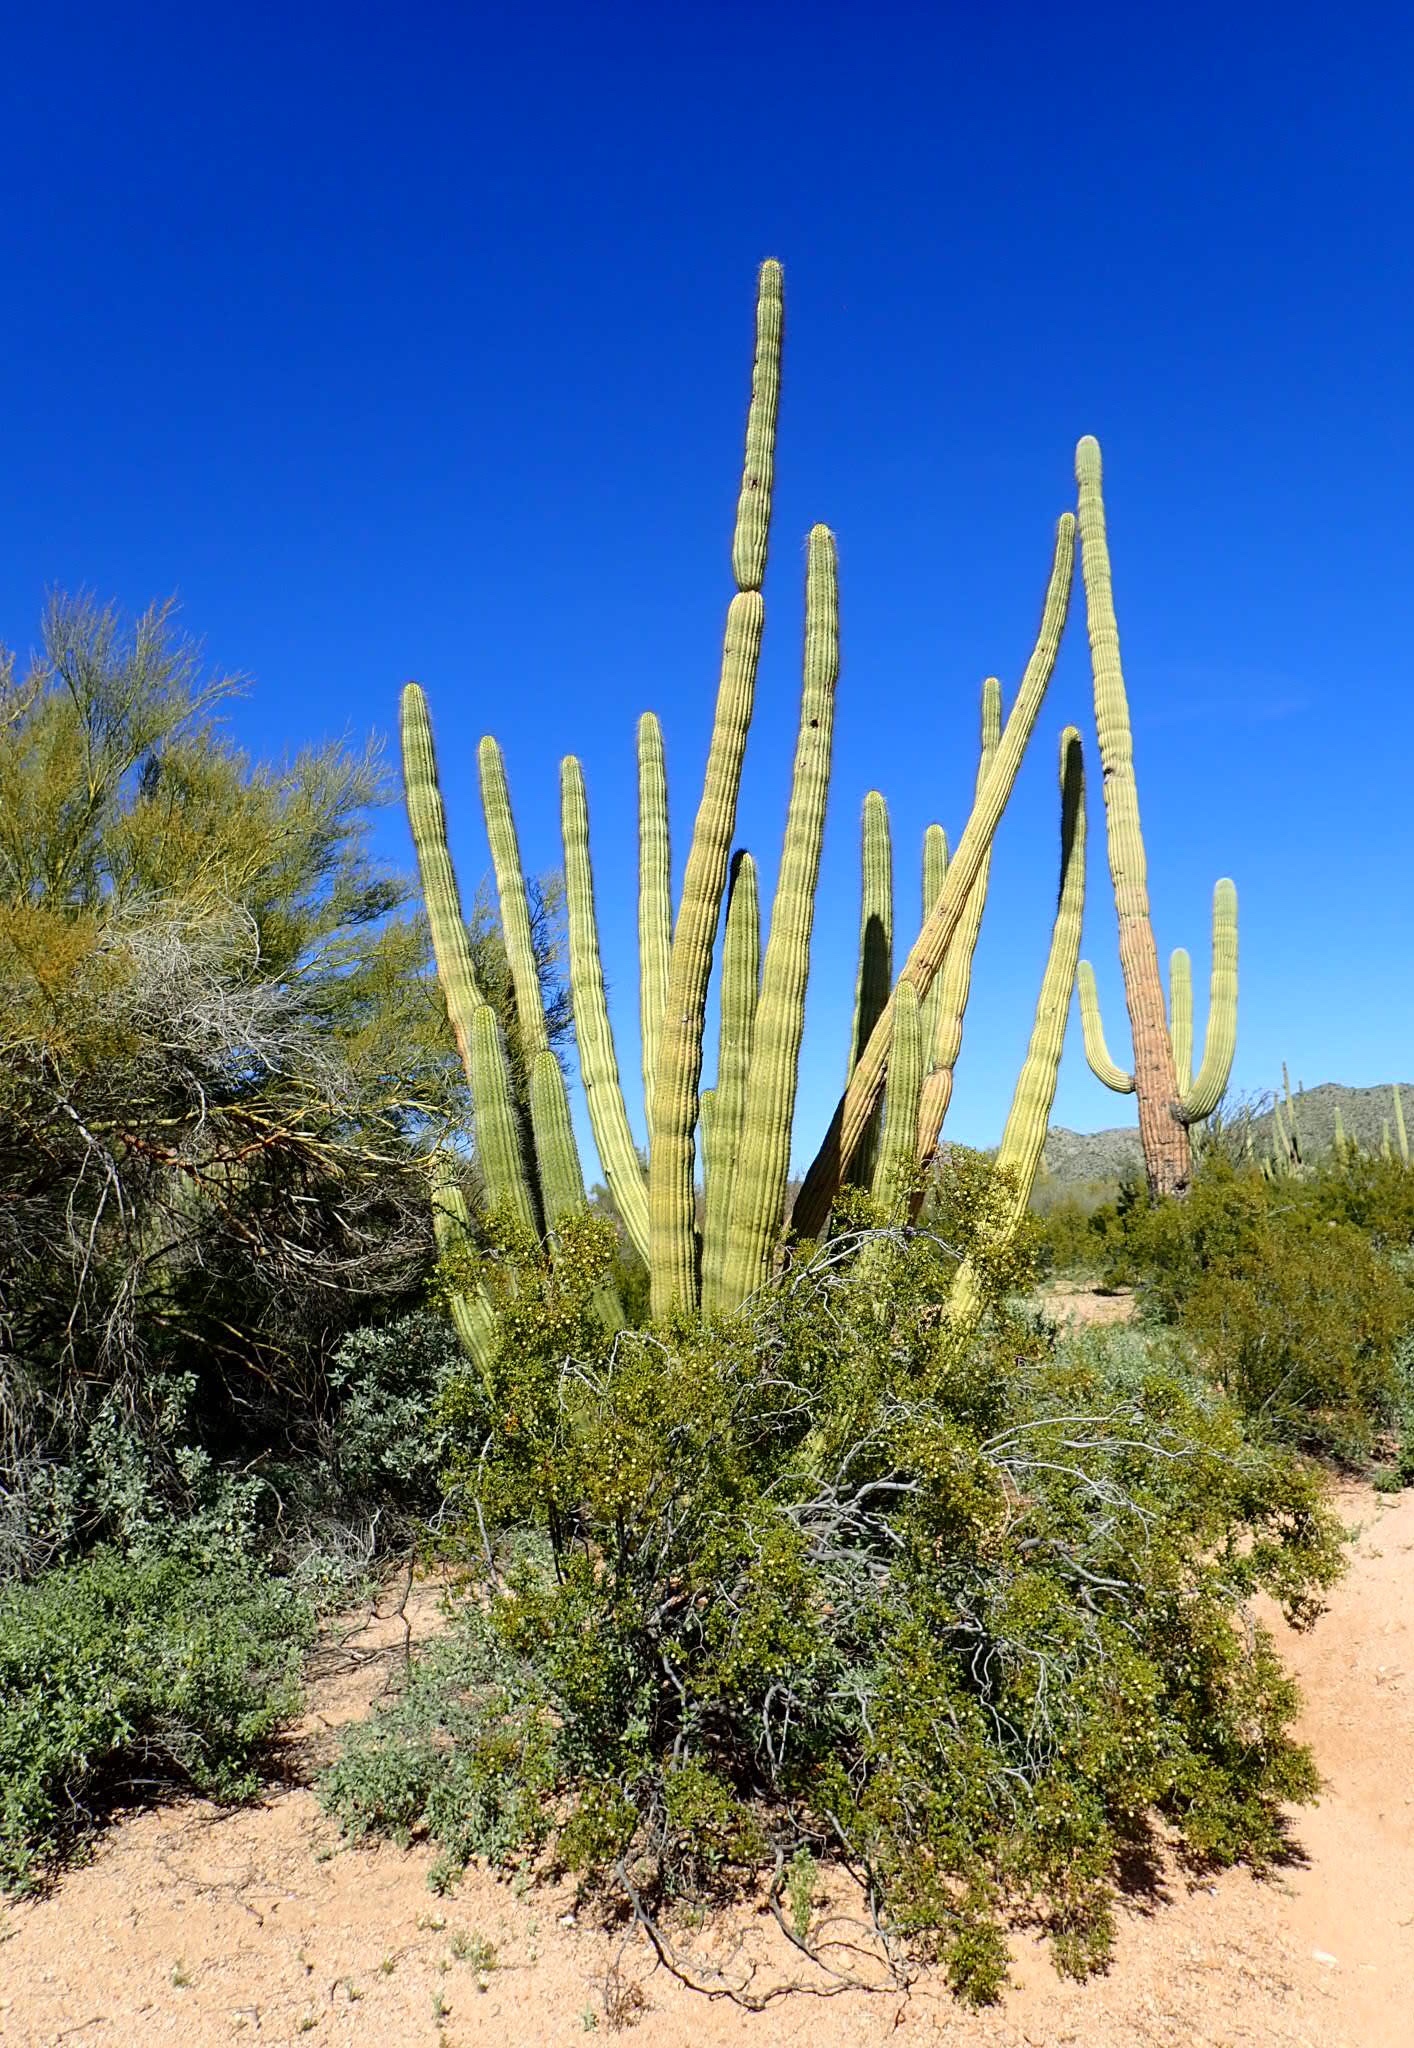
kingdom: Plantae
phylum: Tracheophyta
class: Magnoliopsida
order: Caryophyllales
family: Cactaceae
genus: Stenocereus
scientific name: Stenocereus thurberi
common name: Organ pipe cactus
